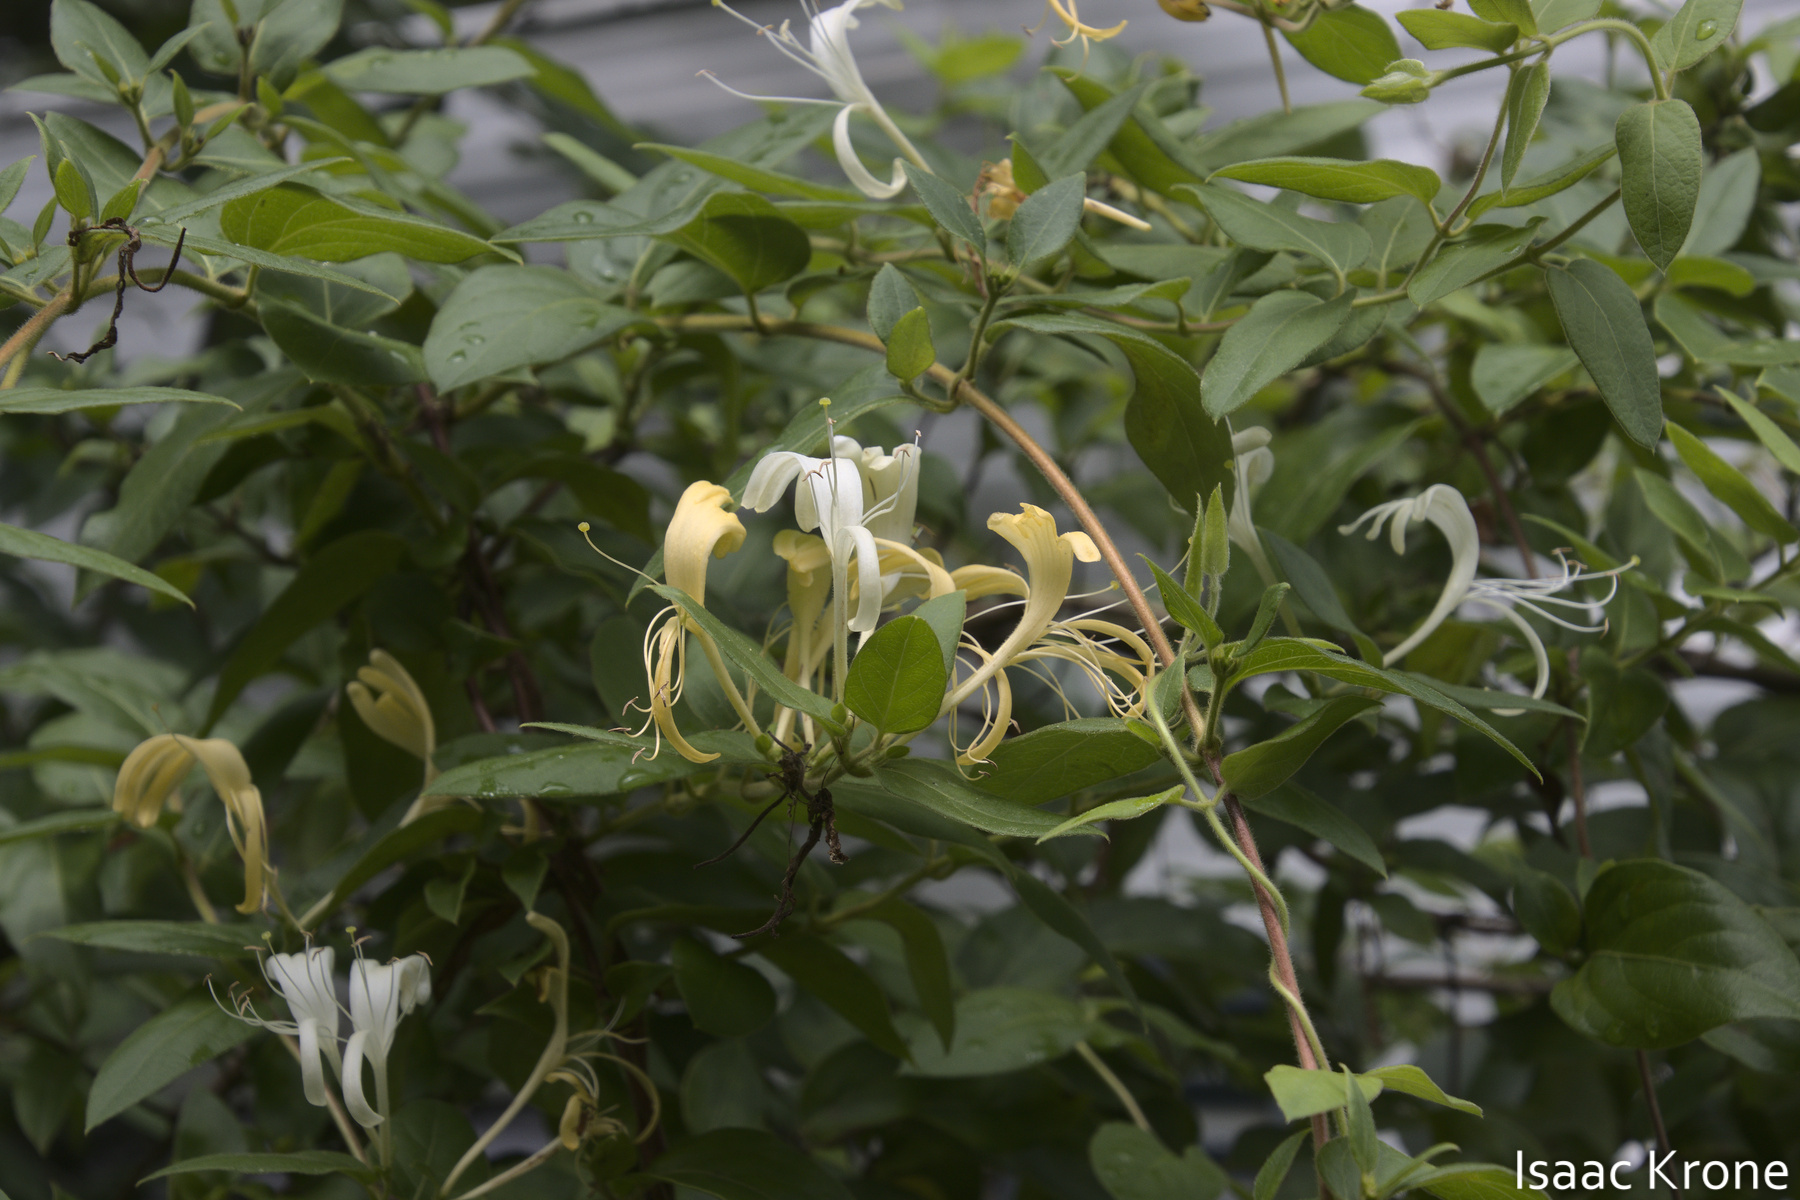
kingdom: Plantae
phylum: Tracheophyta
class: Magnoliopsida
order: Dipsacales
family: Caprifoliaceae
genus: Lonicera
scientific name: Lonicera japonica
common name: Japanese honeysuckle
